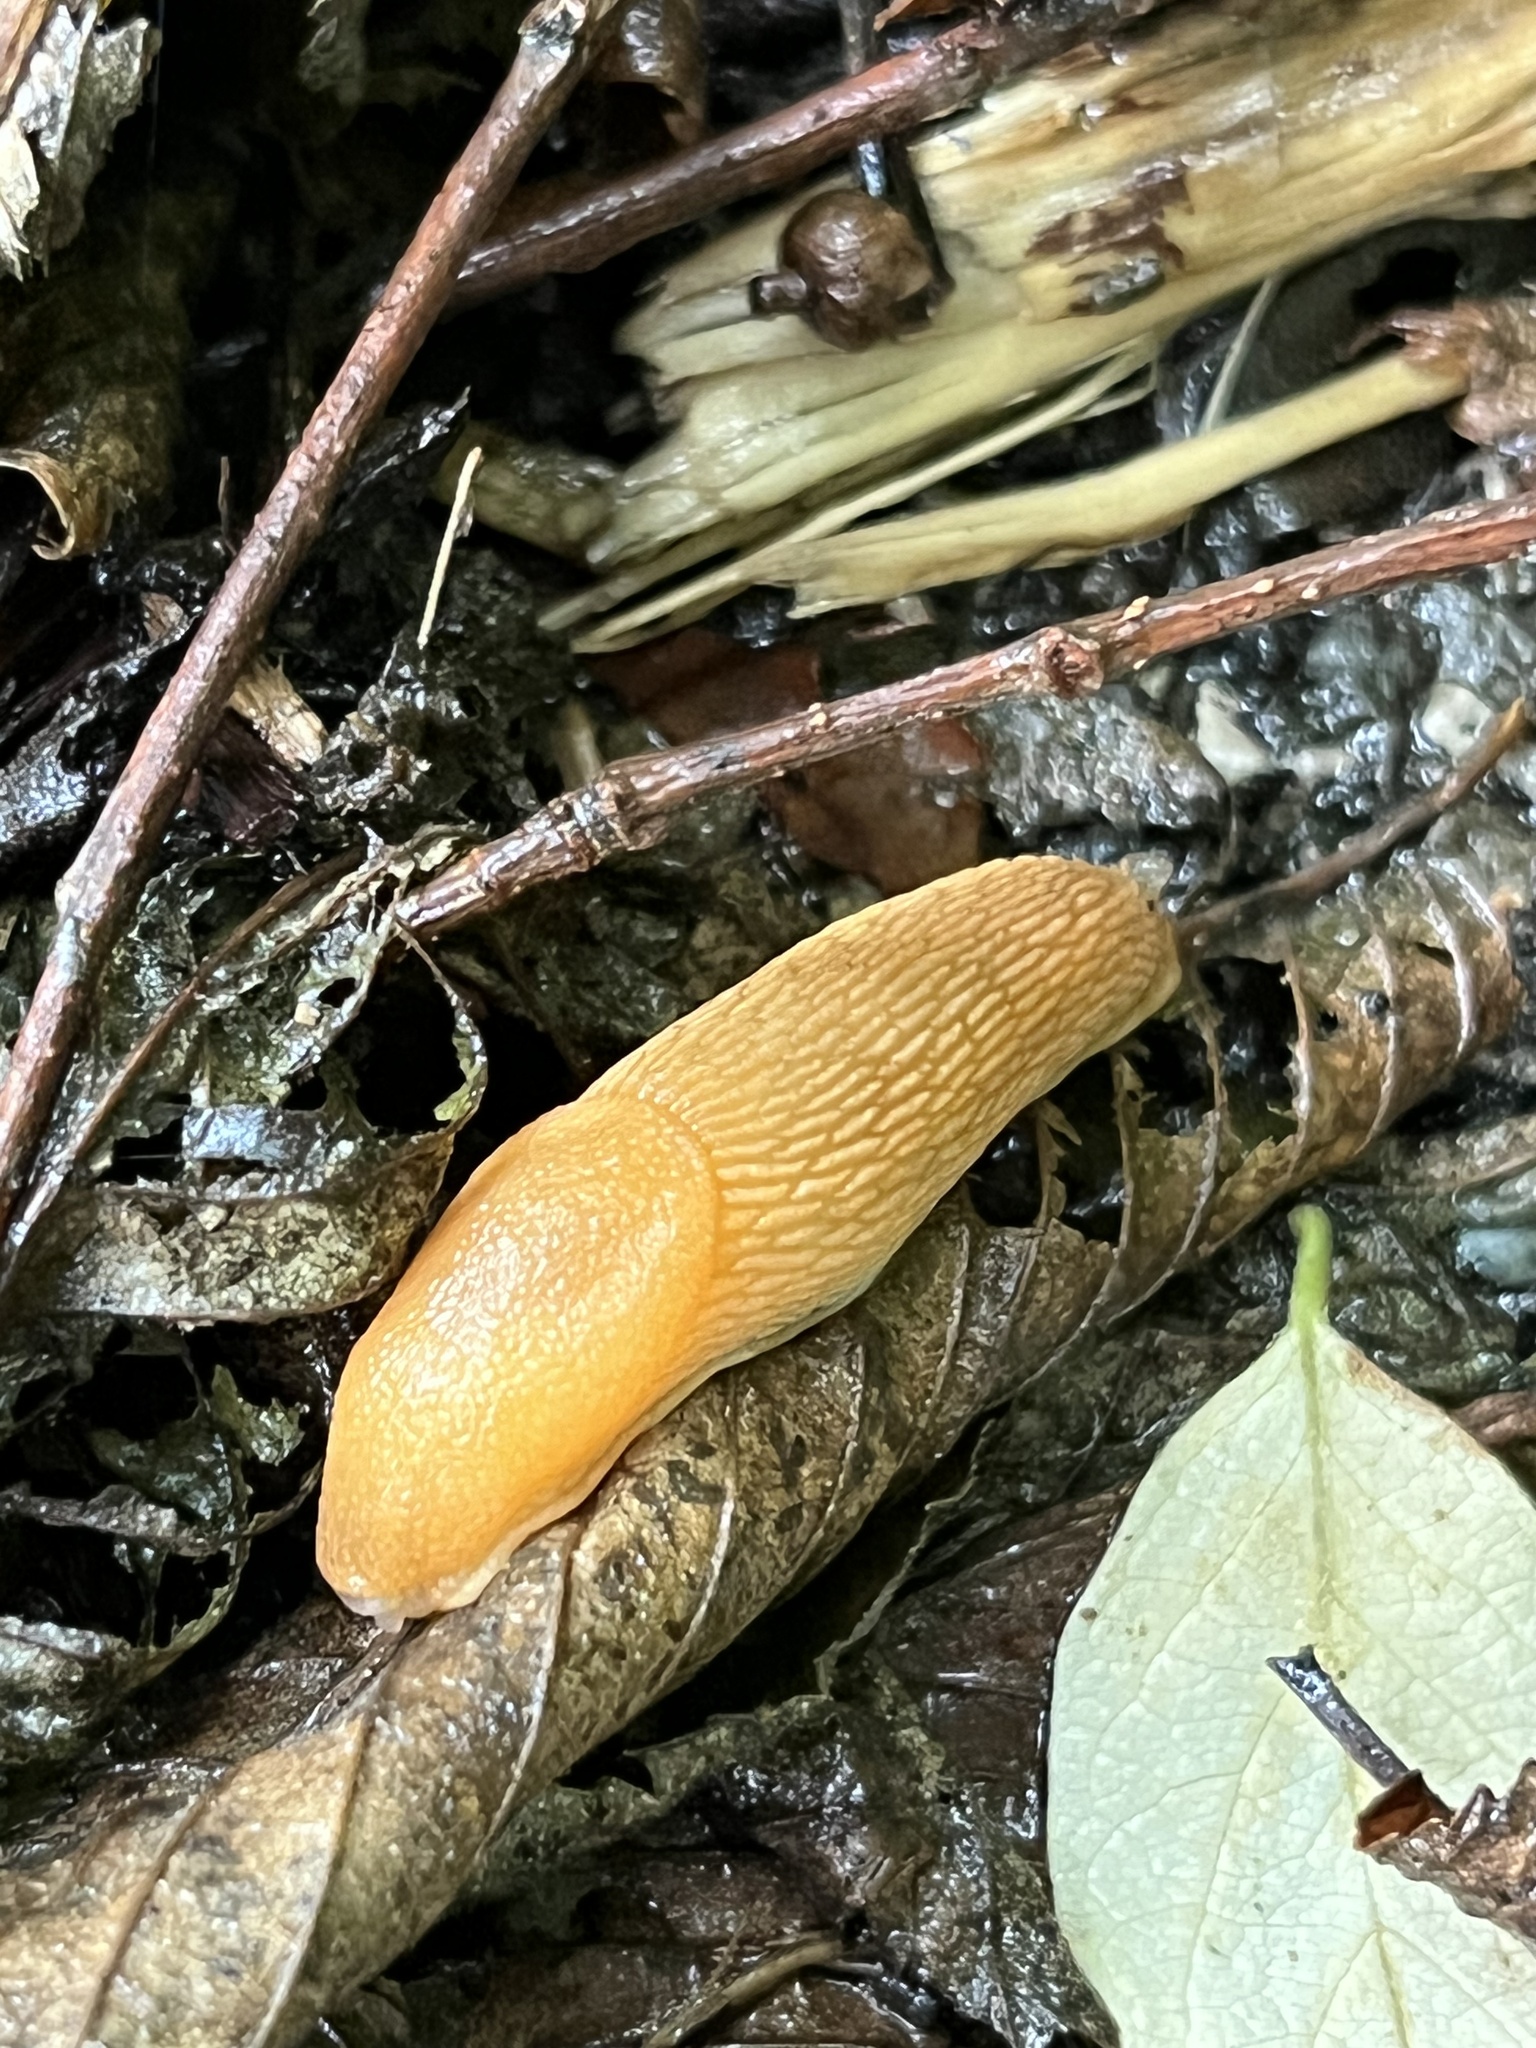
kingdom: Animalia
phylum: Mollusca
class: Gastropoda
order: Stylommatophora
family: Arionidae
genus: Mesarion
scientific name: Mesarion
